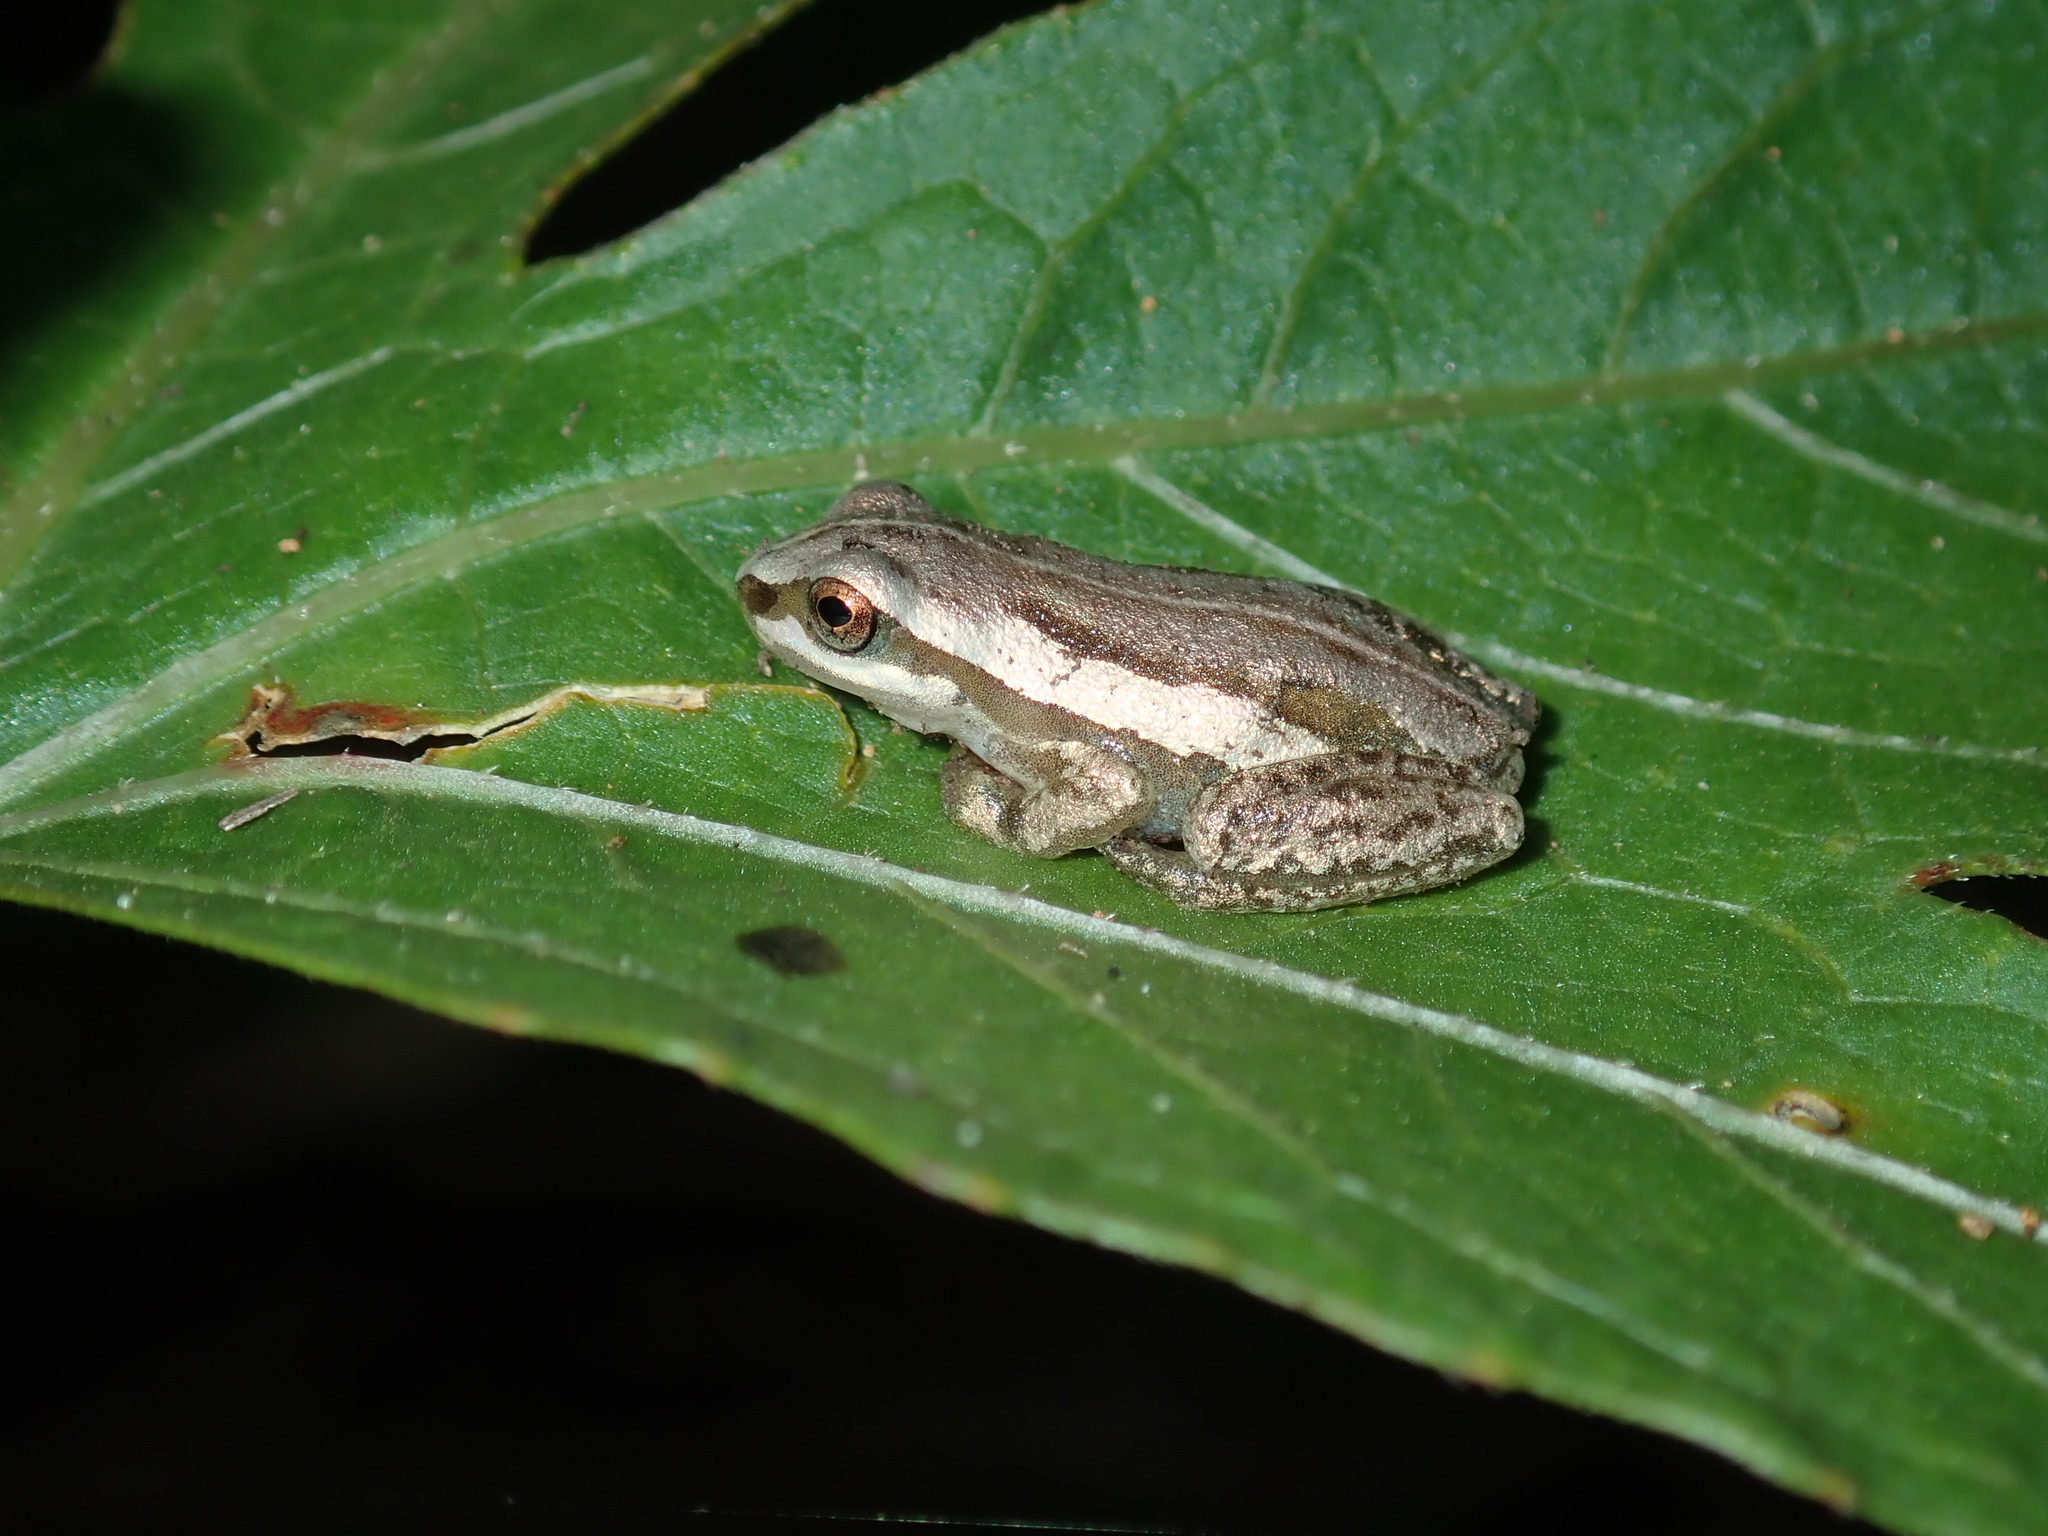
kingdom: Animalia
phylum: Chordata
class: Amphibia
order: Anura
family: Pelodryadidae
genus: Litoria
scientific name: Litoria rubella
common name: Desert tree frog
